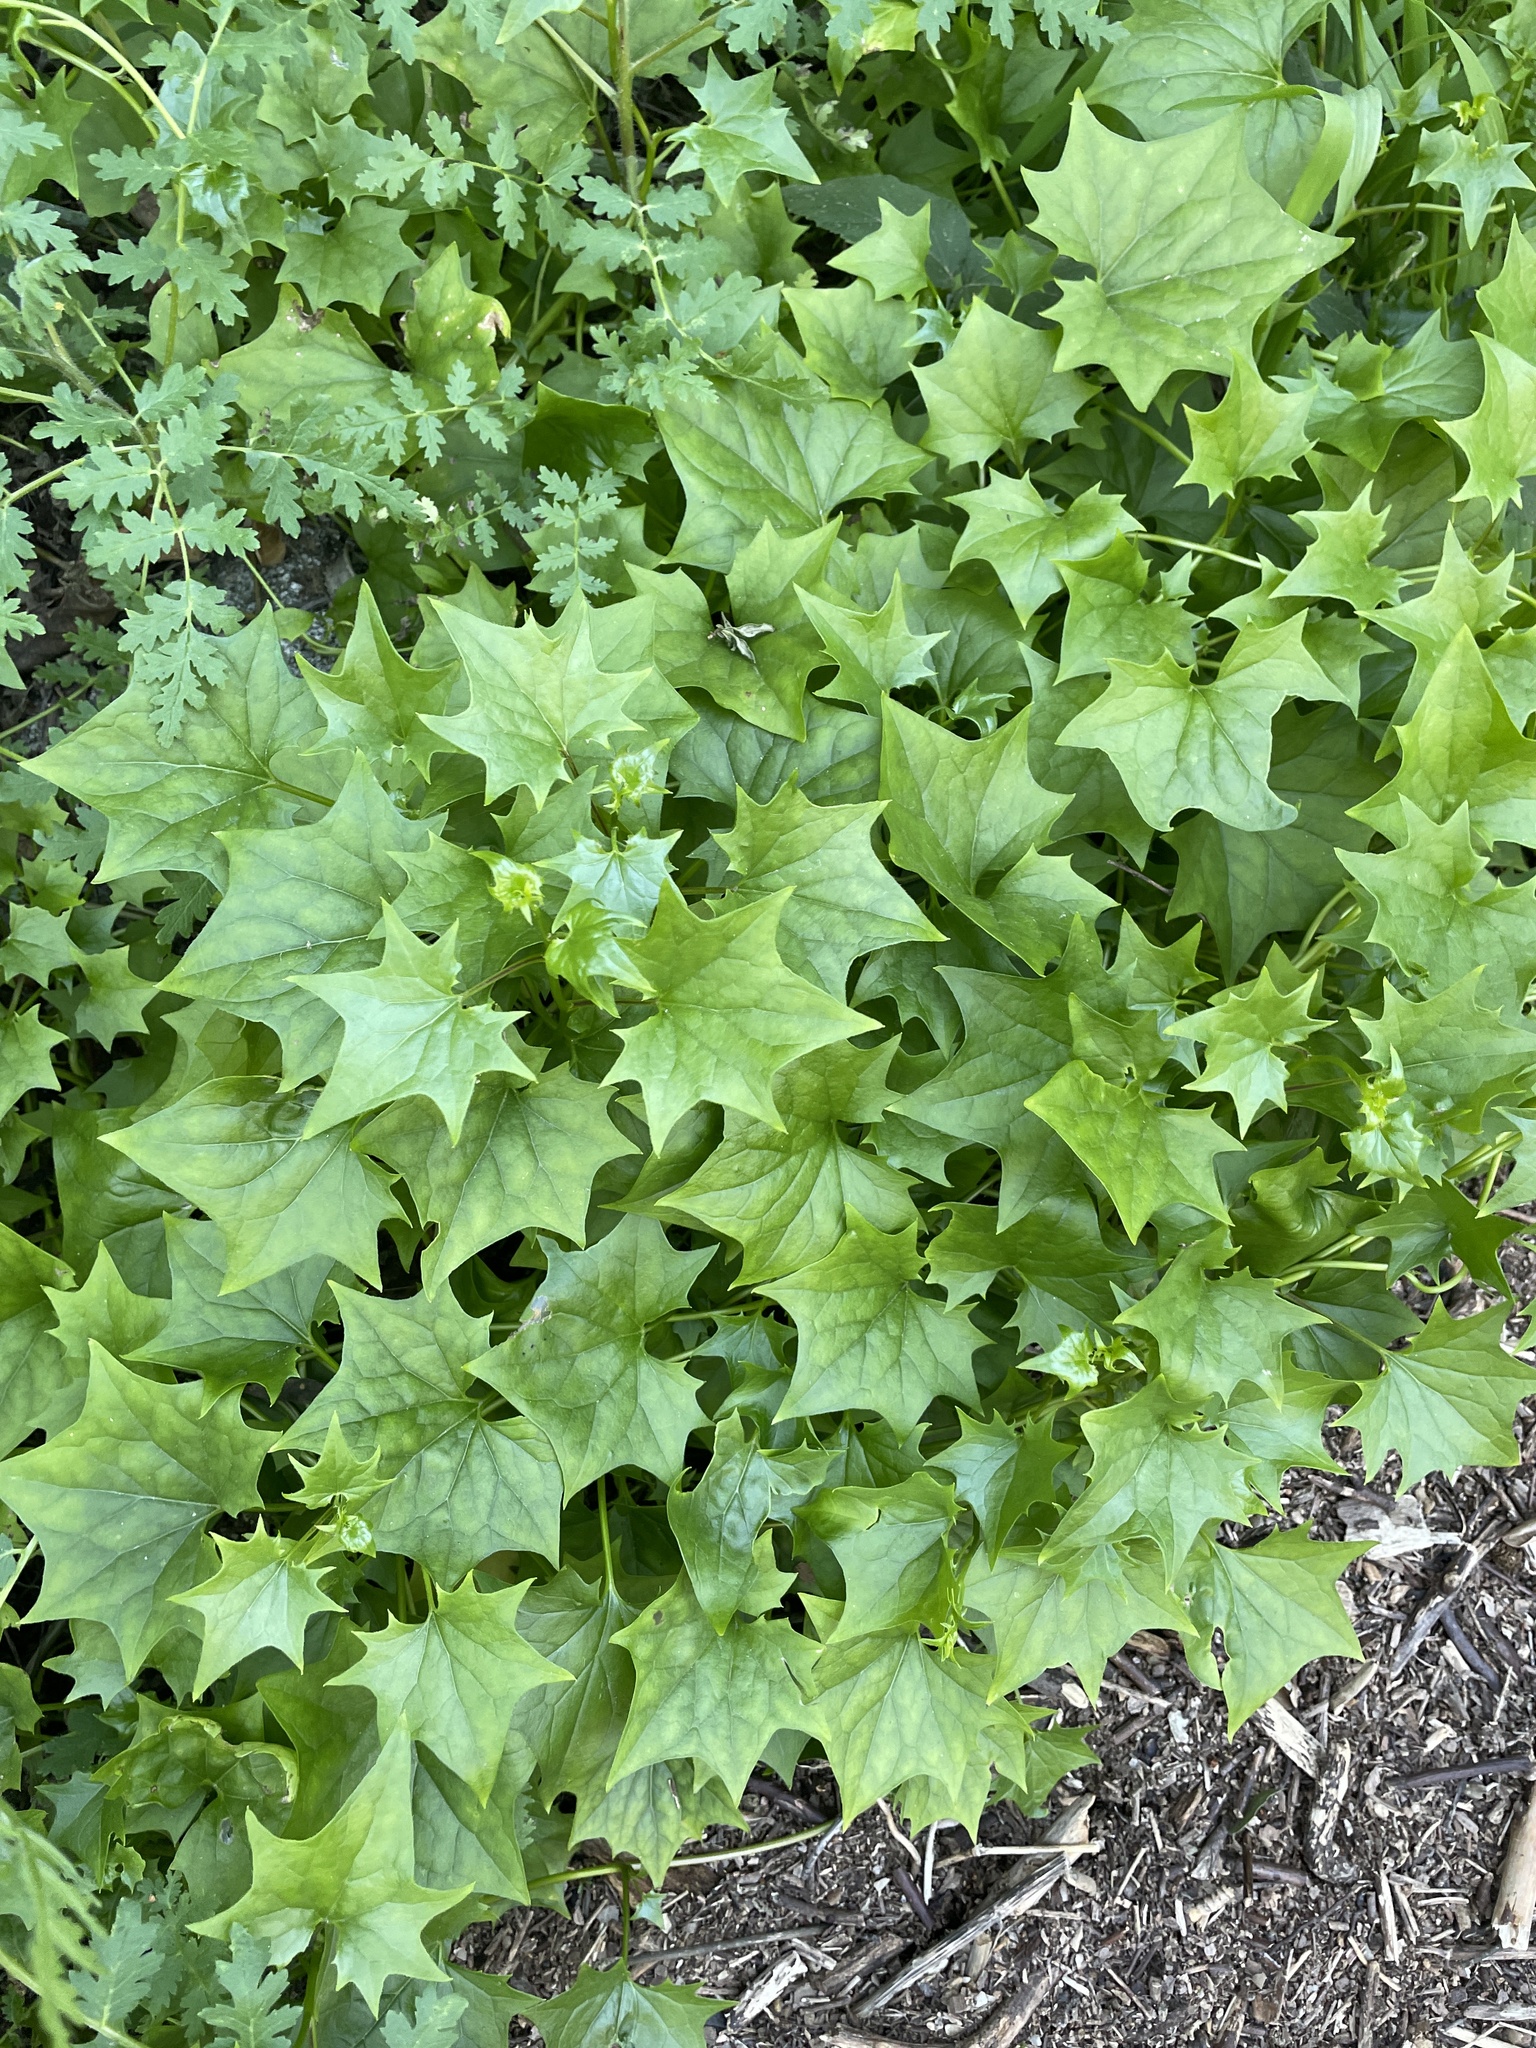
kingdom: Plantae
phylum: Tracheophyta
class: Magnoliopsida
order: Asterales
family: Asteraceae
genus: Delairea
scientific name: Delairea odorata
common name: Cape-ivy
